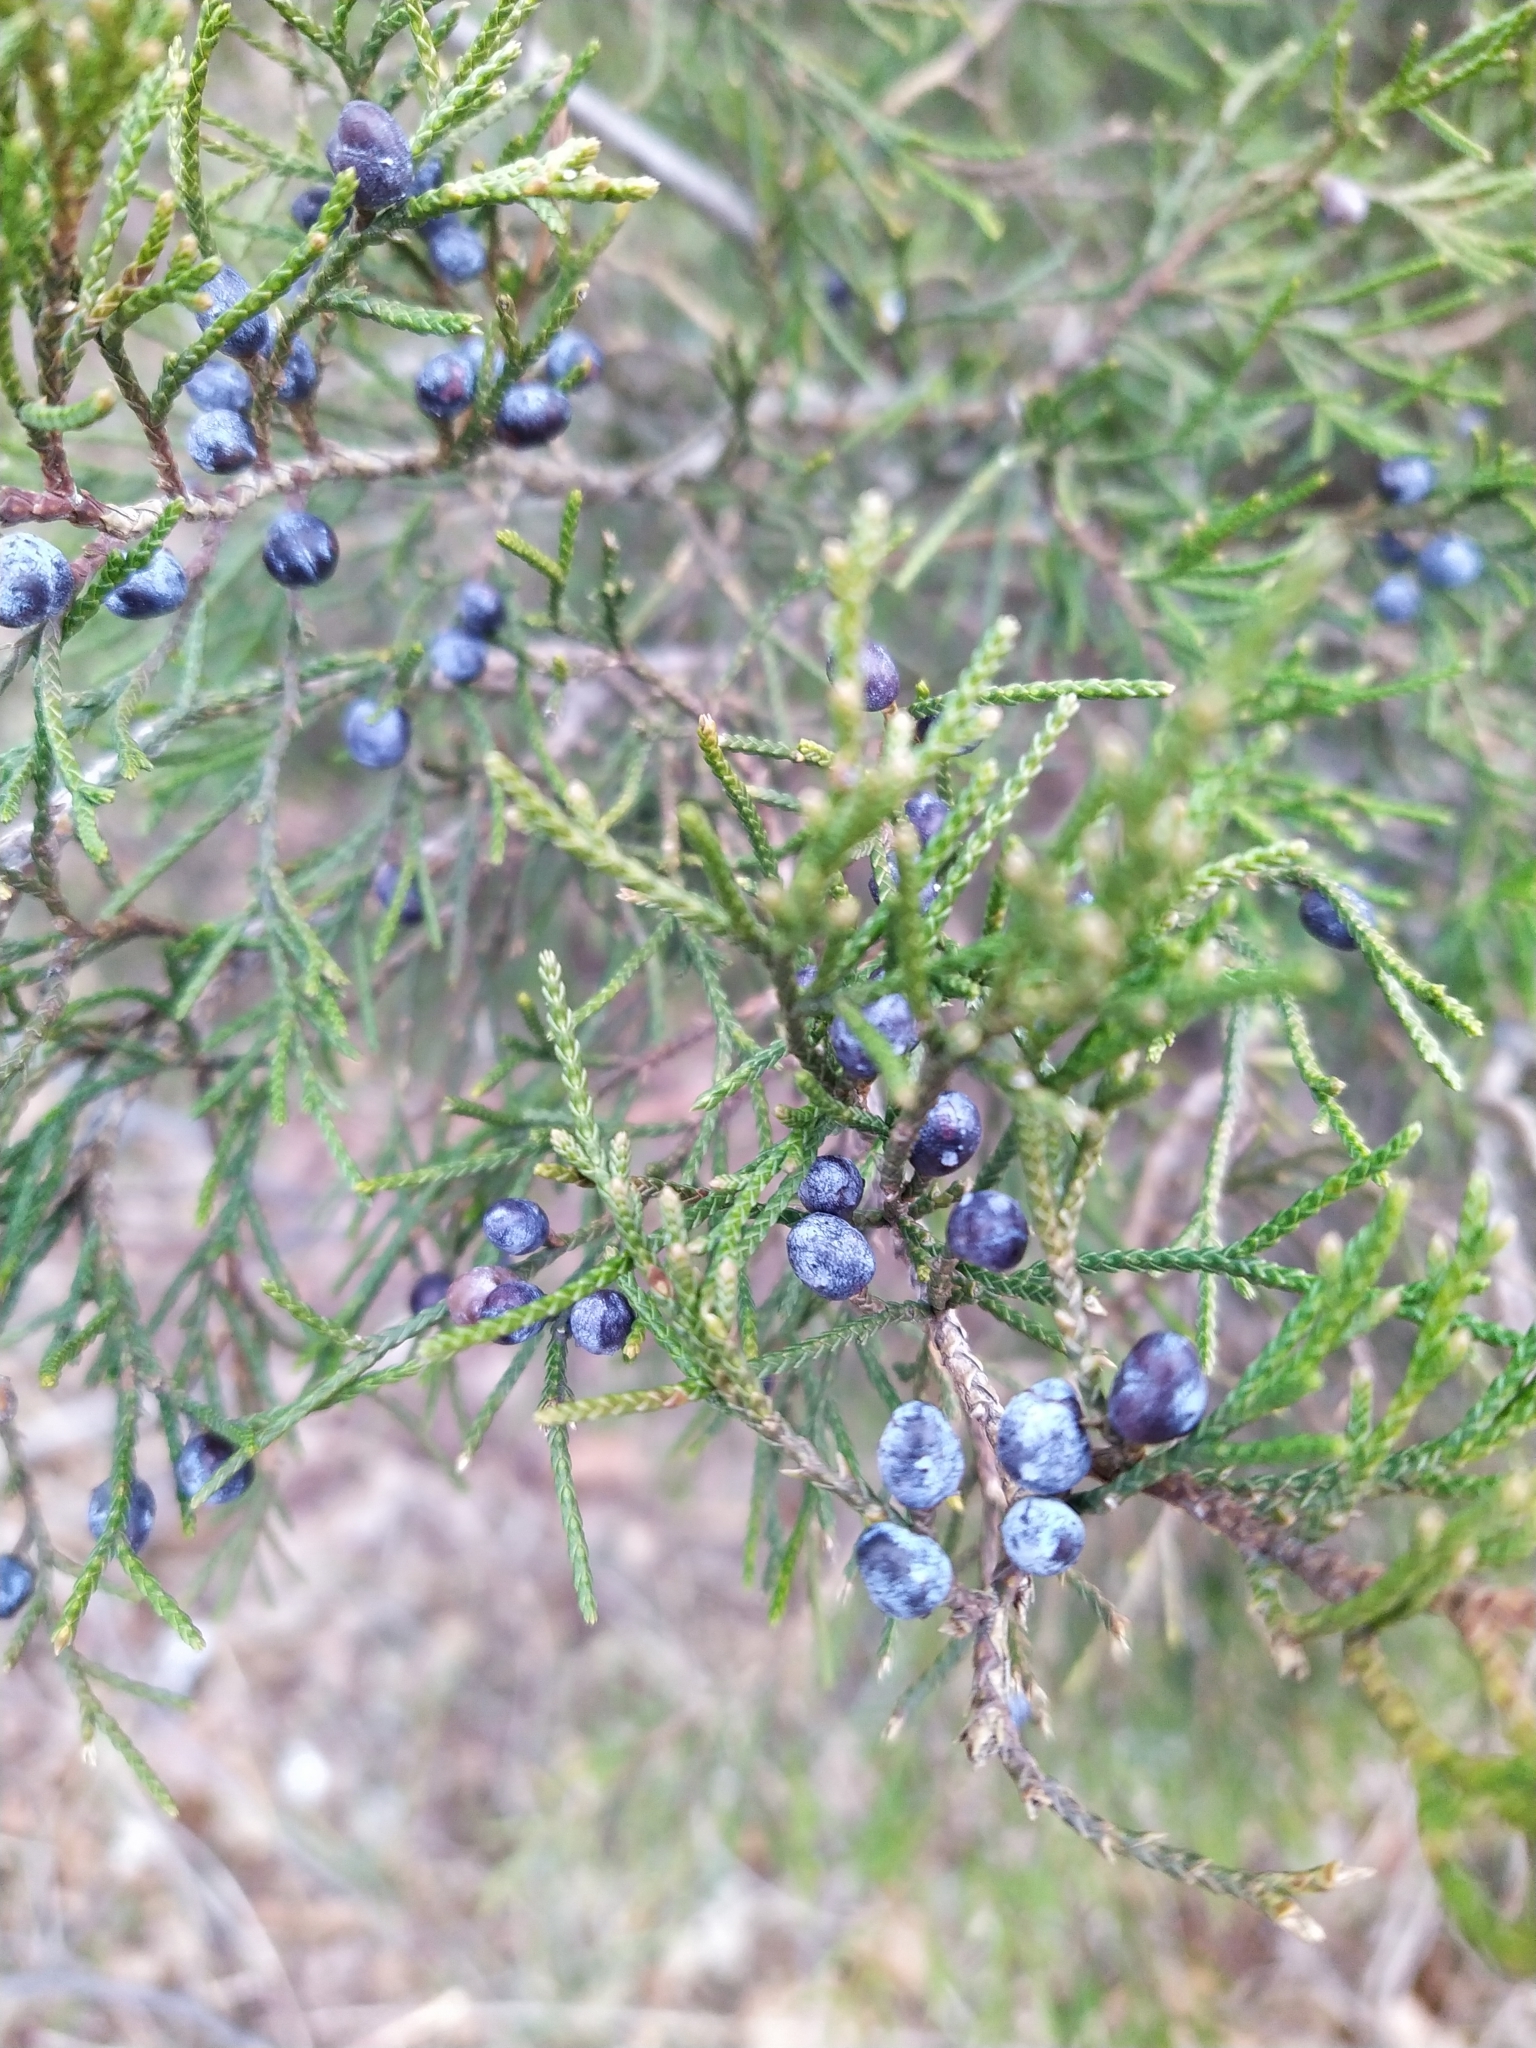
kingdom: Plantae
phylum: Tracheophyta
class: Pinopsida
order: Pinales
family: Cupressaceae
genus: Juniperus
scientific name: Juniperus virginiana
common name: Red juniper
